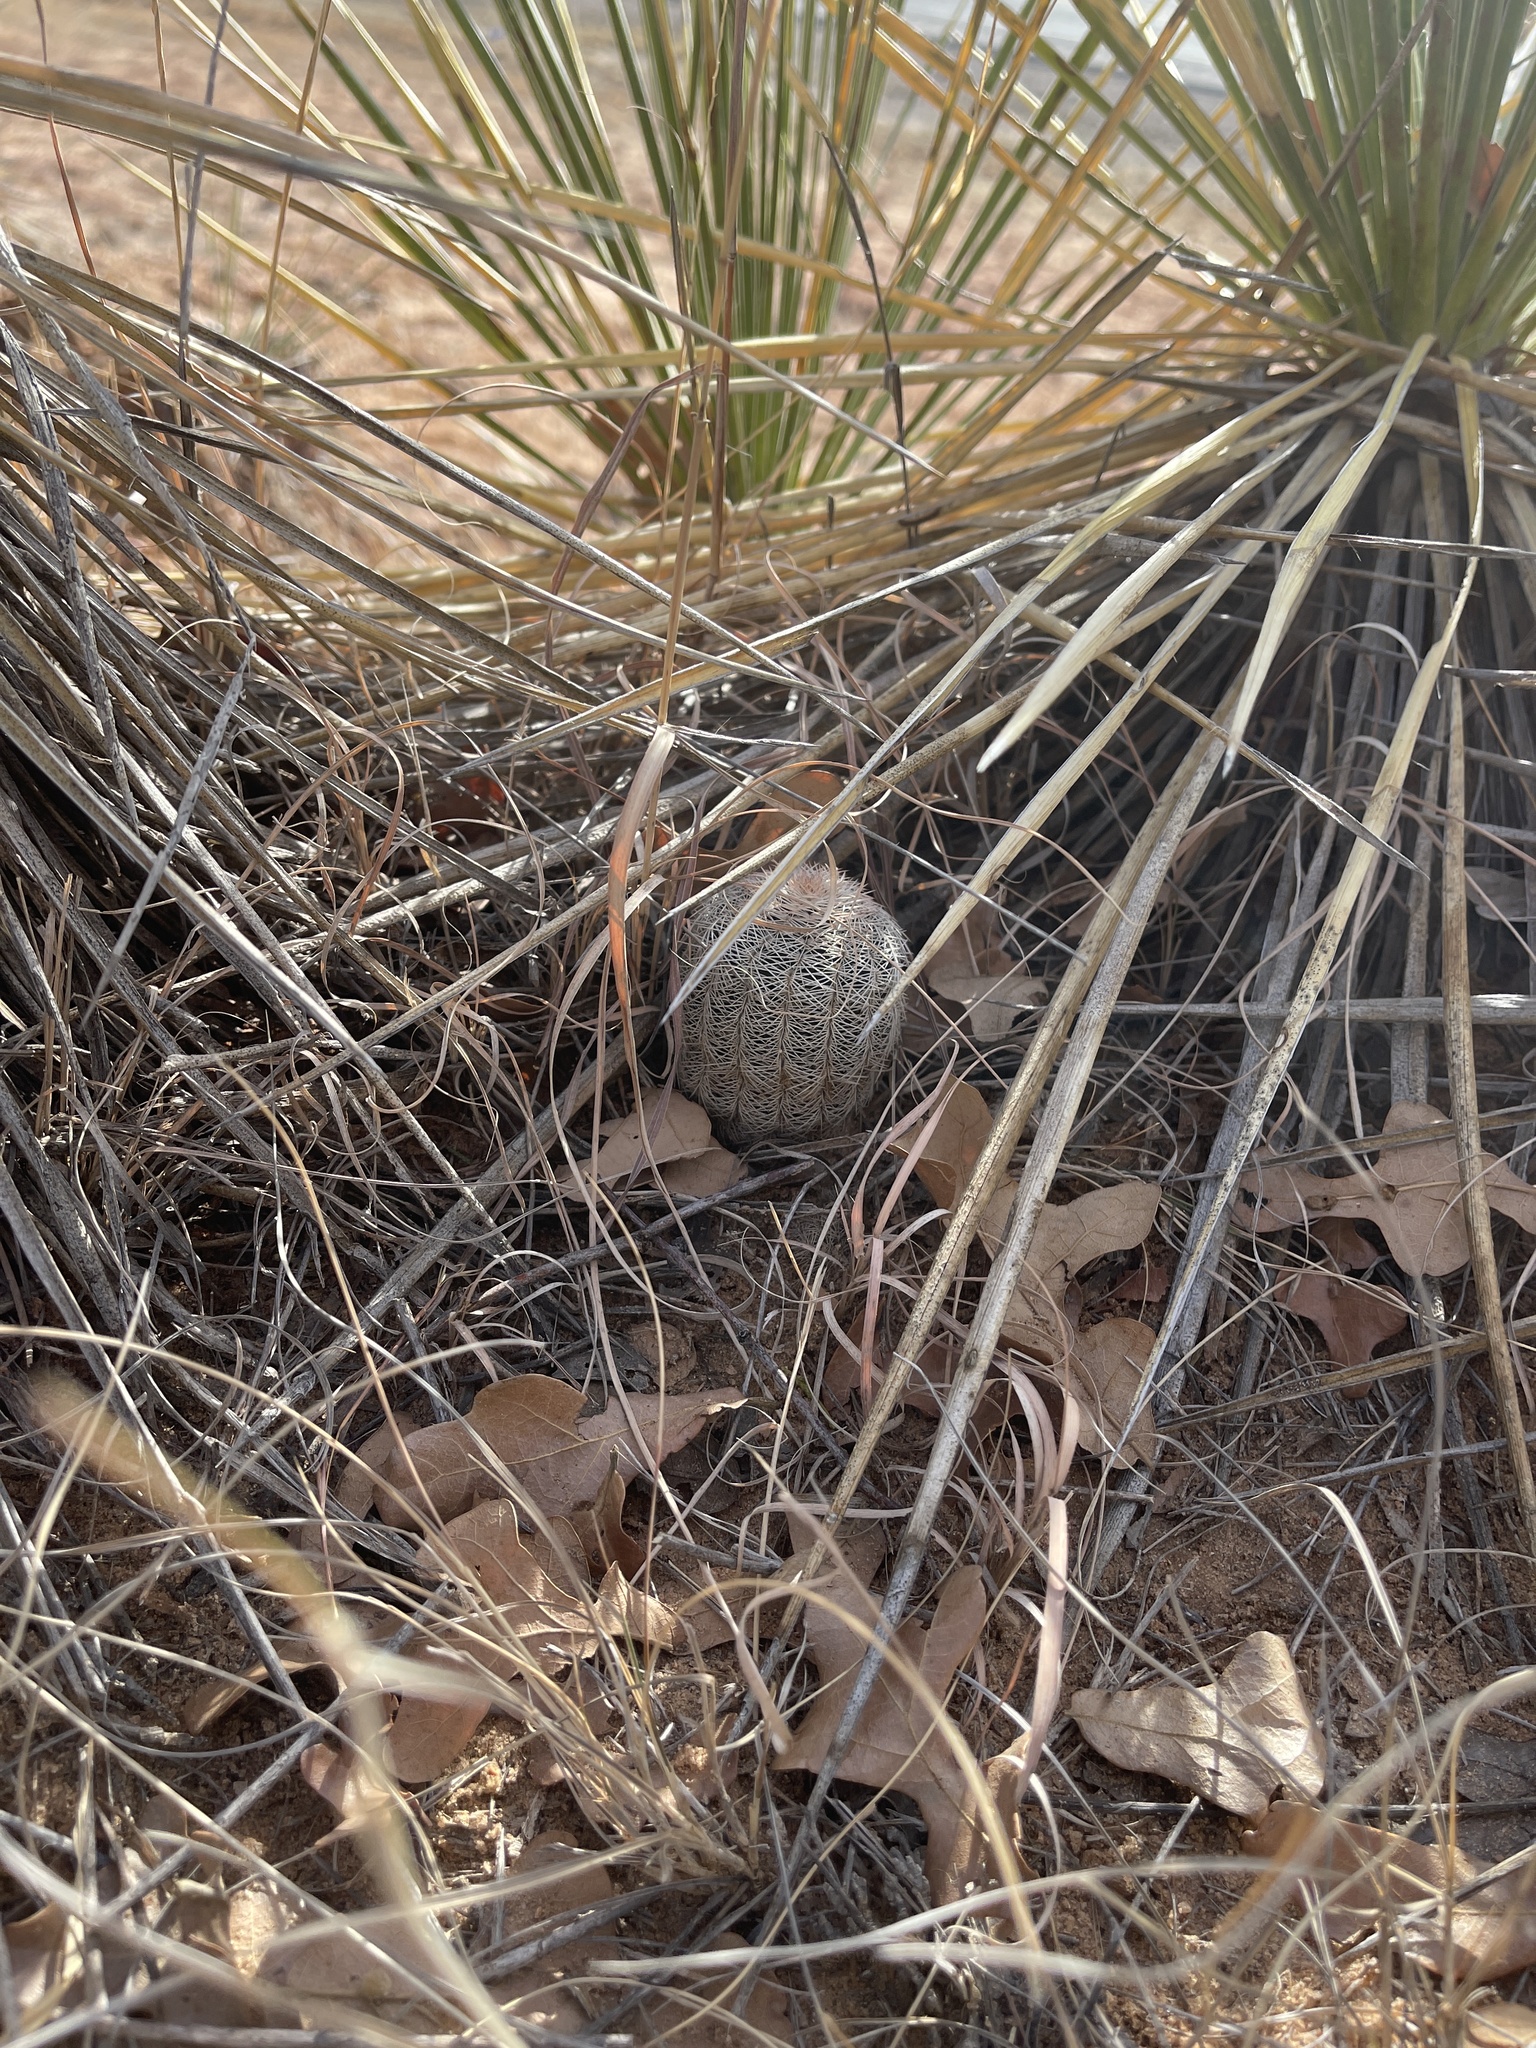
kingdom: Plantae
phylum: Tracheophyta
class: Magnoliopsida
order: Caryophyllales
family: Cactaceae
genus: Echinocereus
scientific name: Echinocereus reichenbachii
